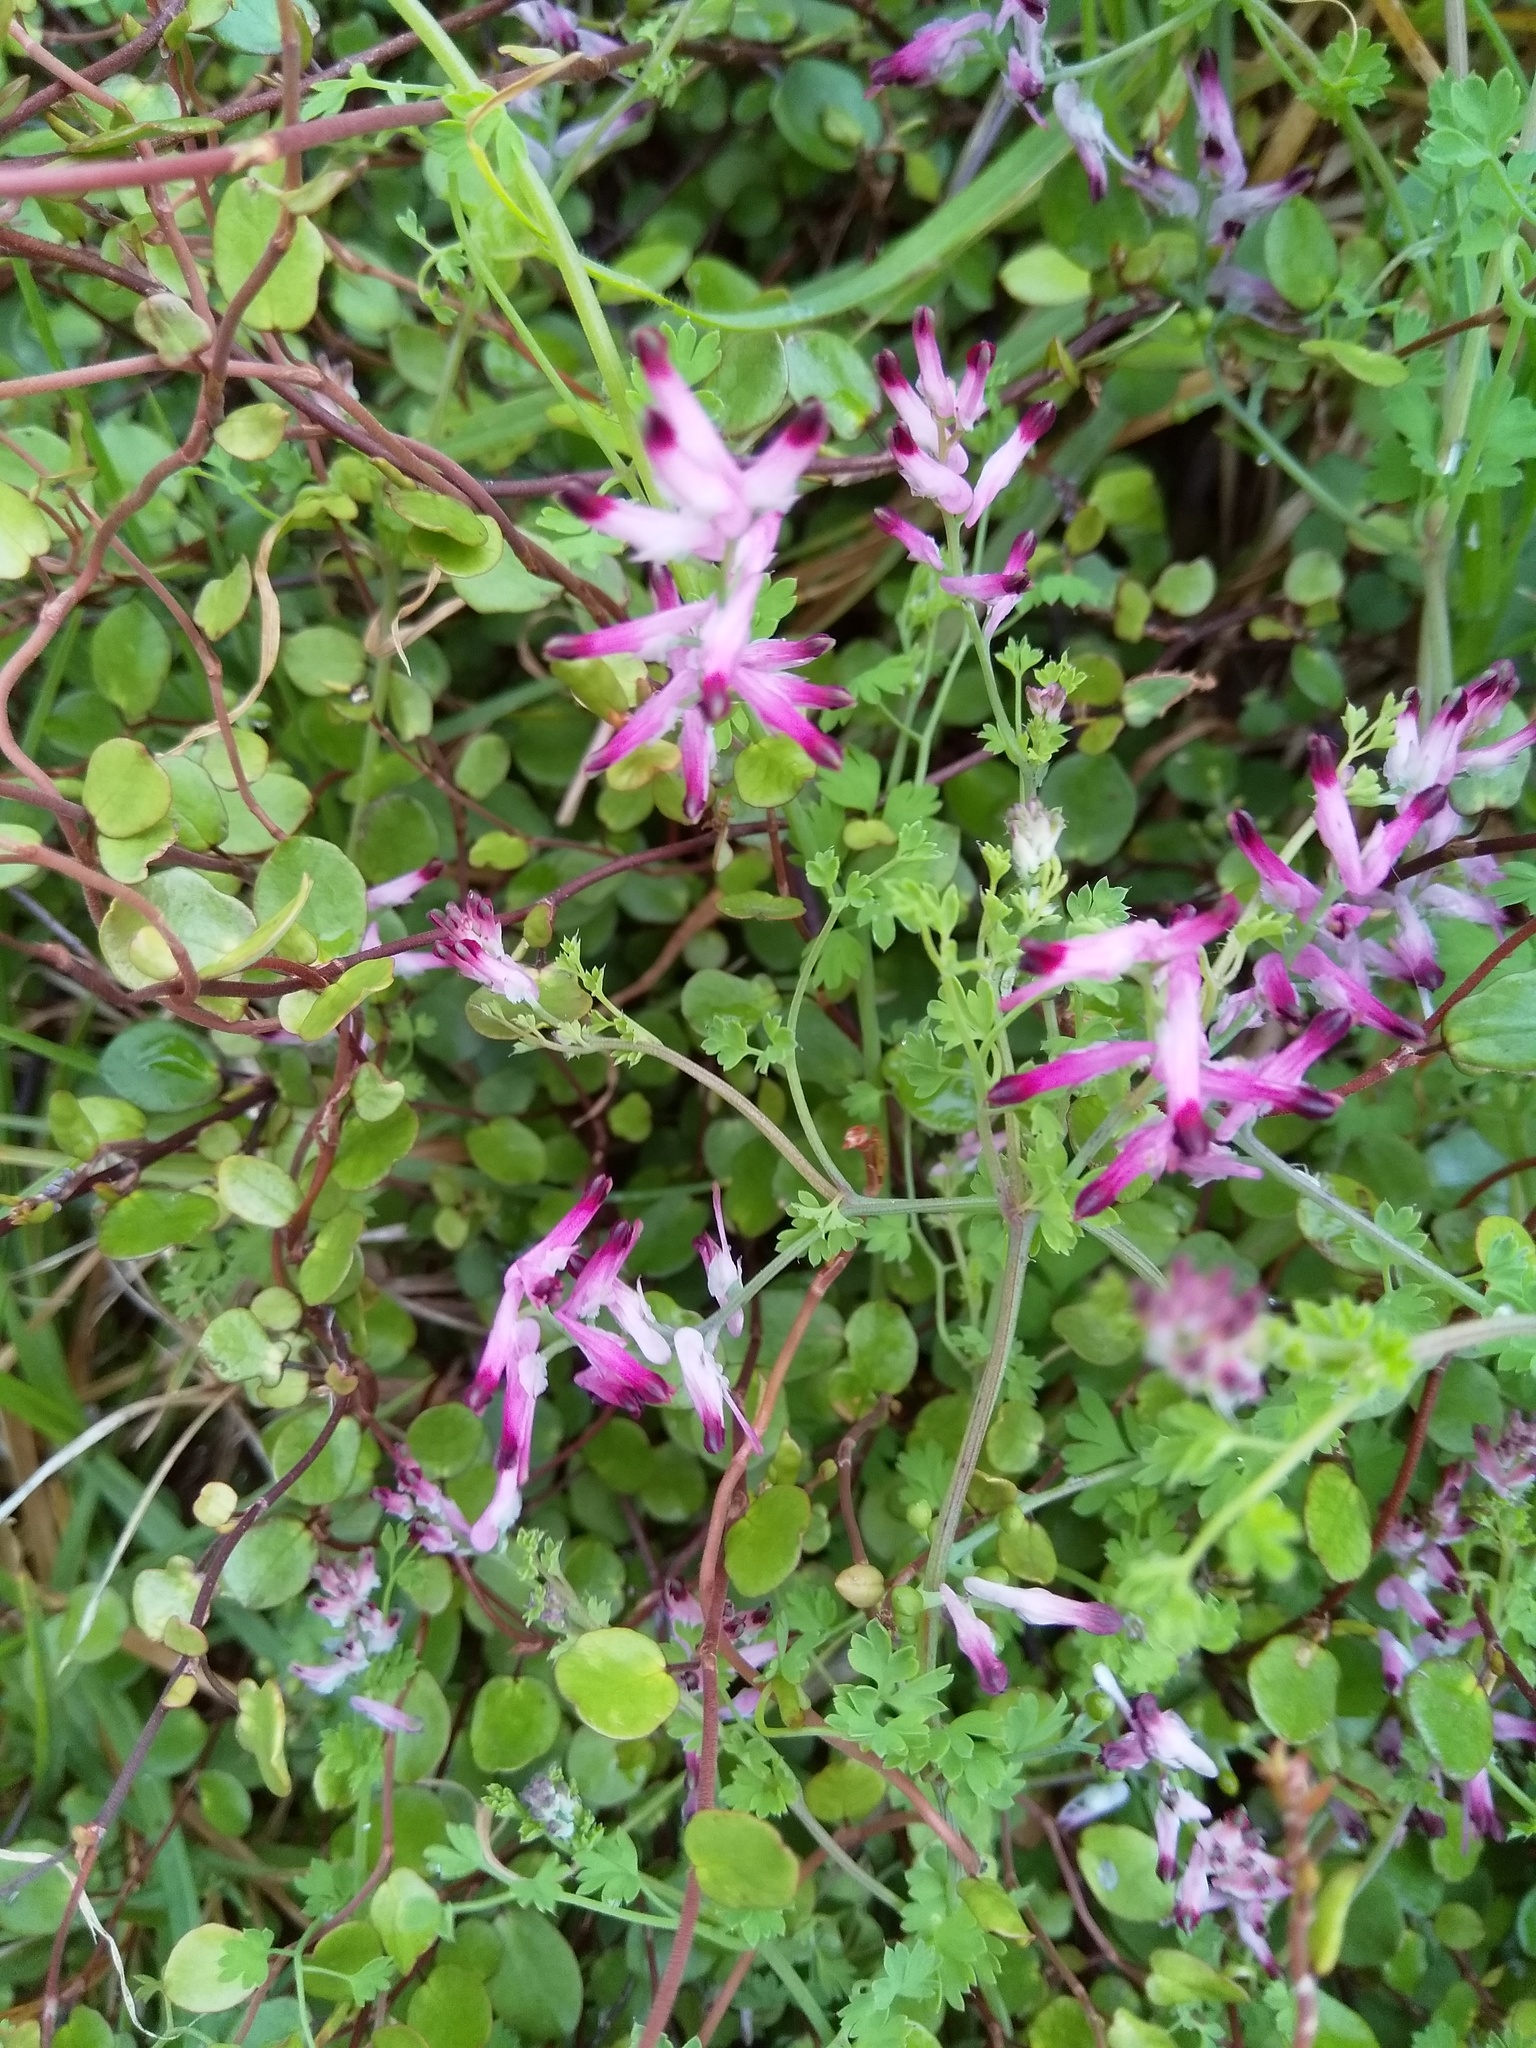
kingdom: Plantae
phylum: Tracheophyta
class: Magnoliopsida
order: Ranunculales
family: Papaveraceae
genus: Fumaria
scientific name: Fumaria muralis
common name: Common ramping-fumitory
